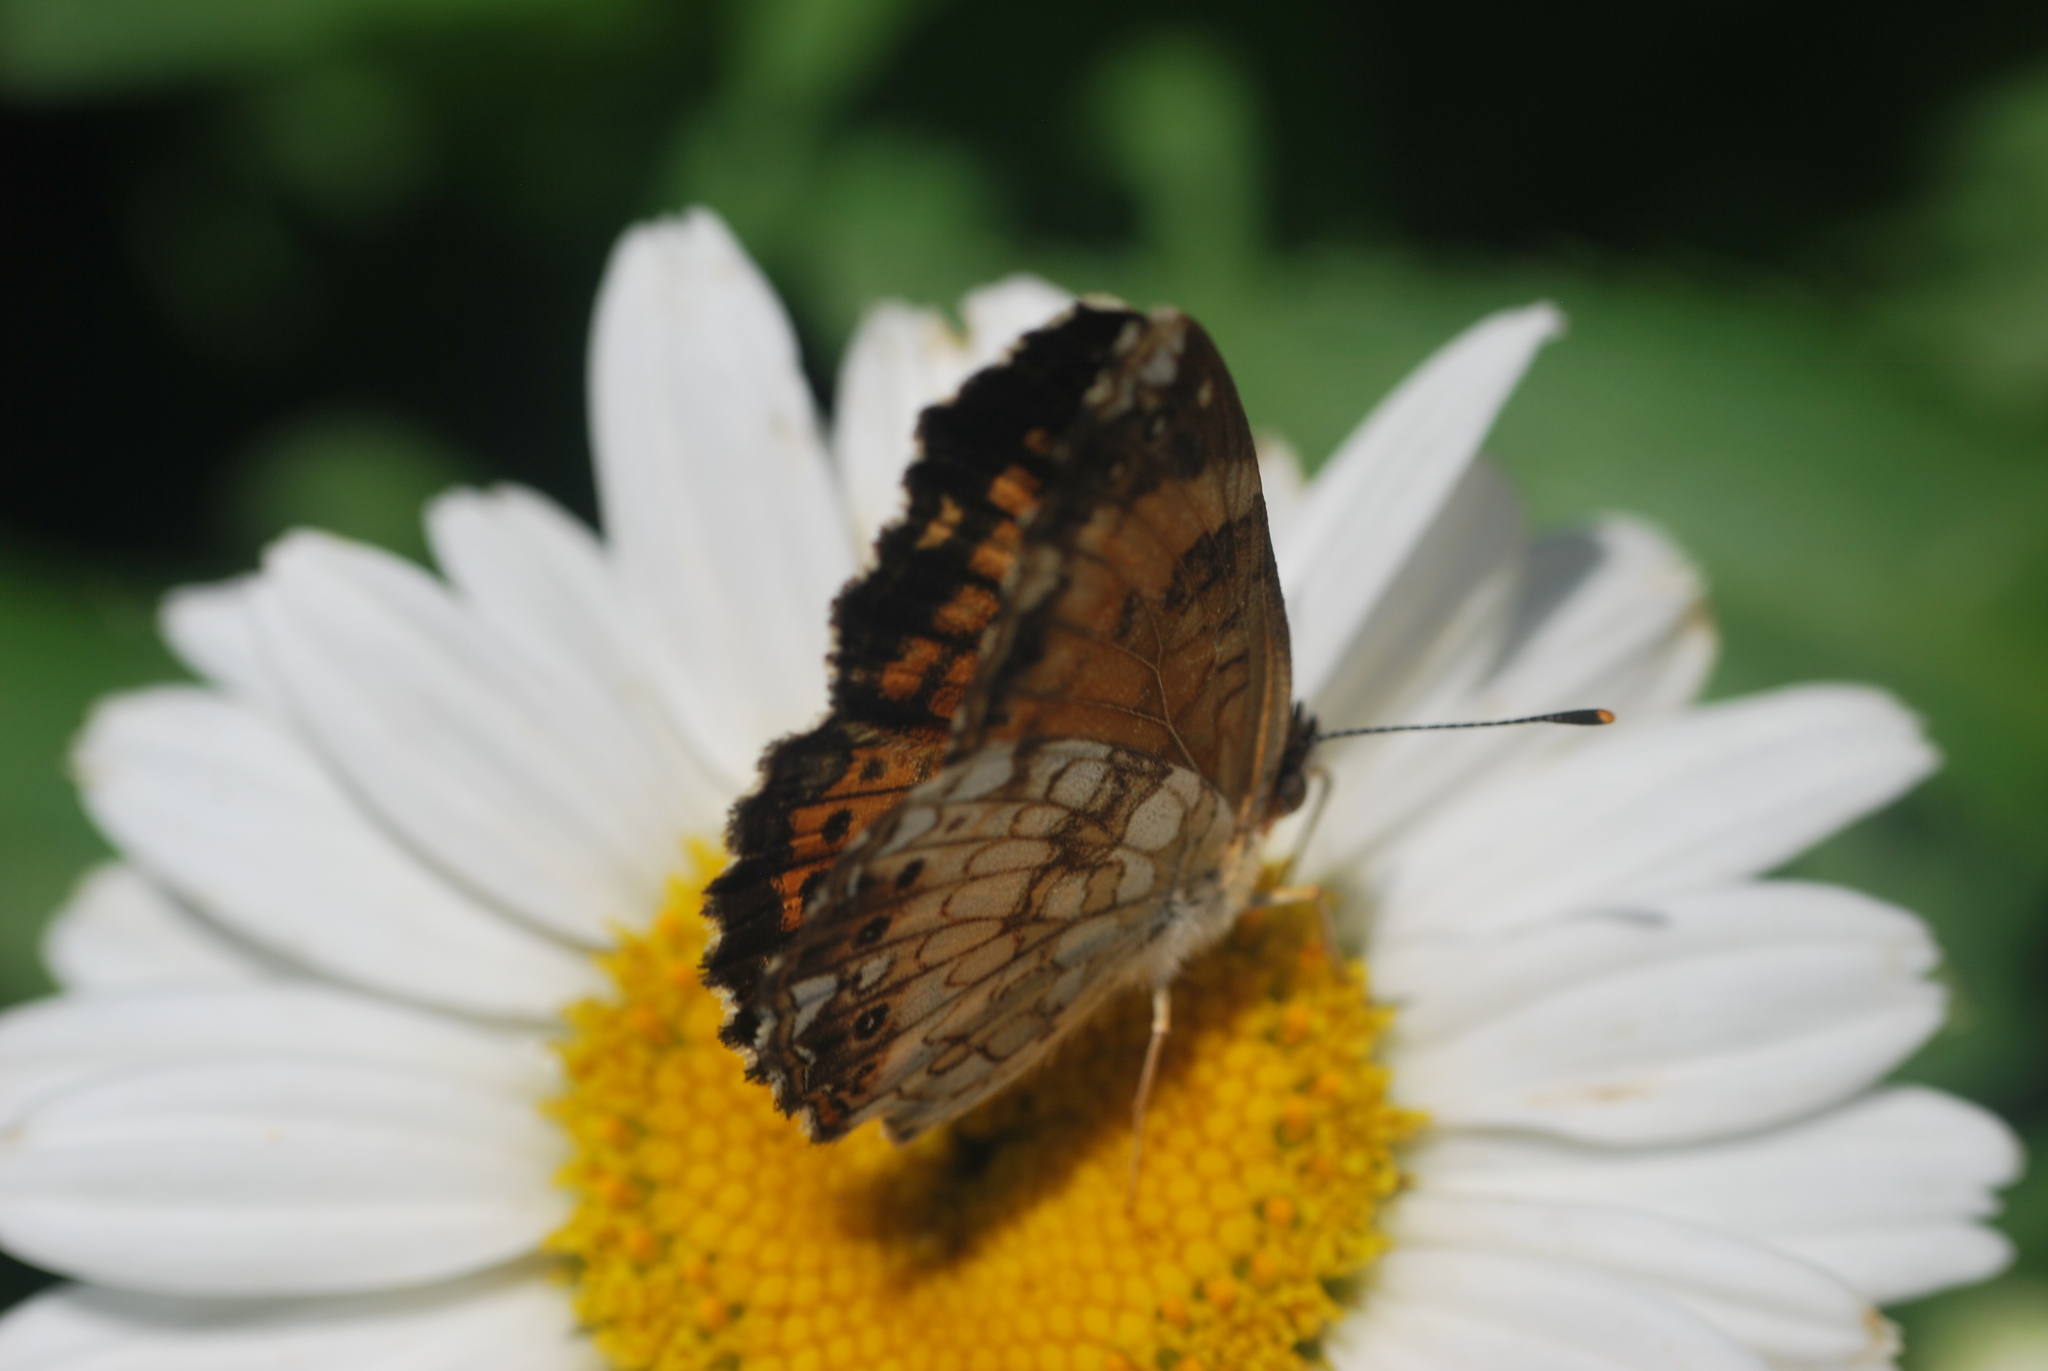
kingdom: Animalia
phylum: Arthropoda
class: Insecta
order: Lepidoptera
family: Nymphalidae
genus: Chlosyne
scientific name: Chlosyne nycteis
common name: Silvery checkerspot
